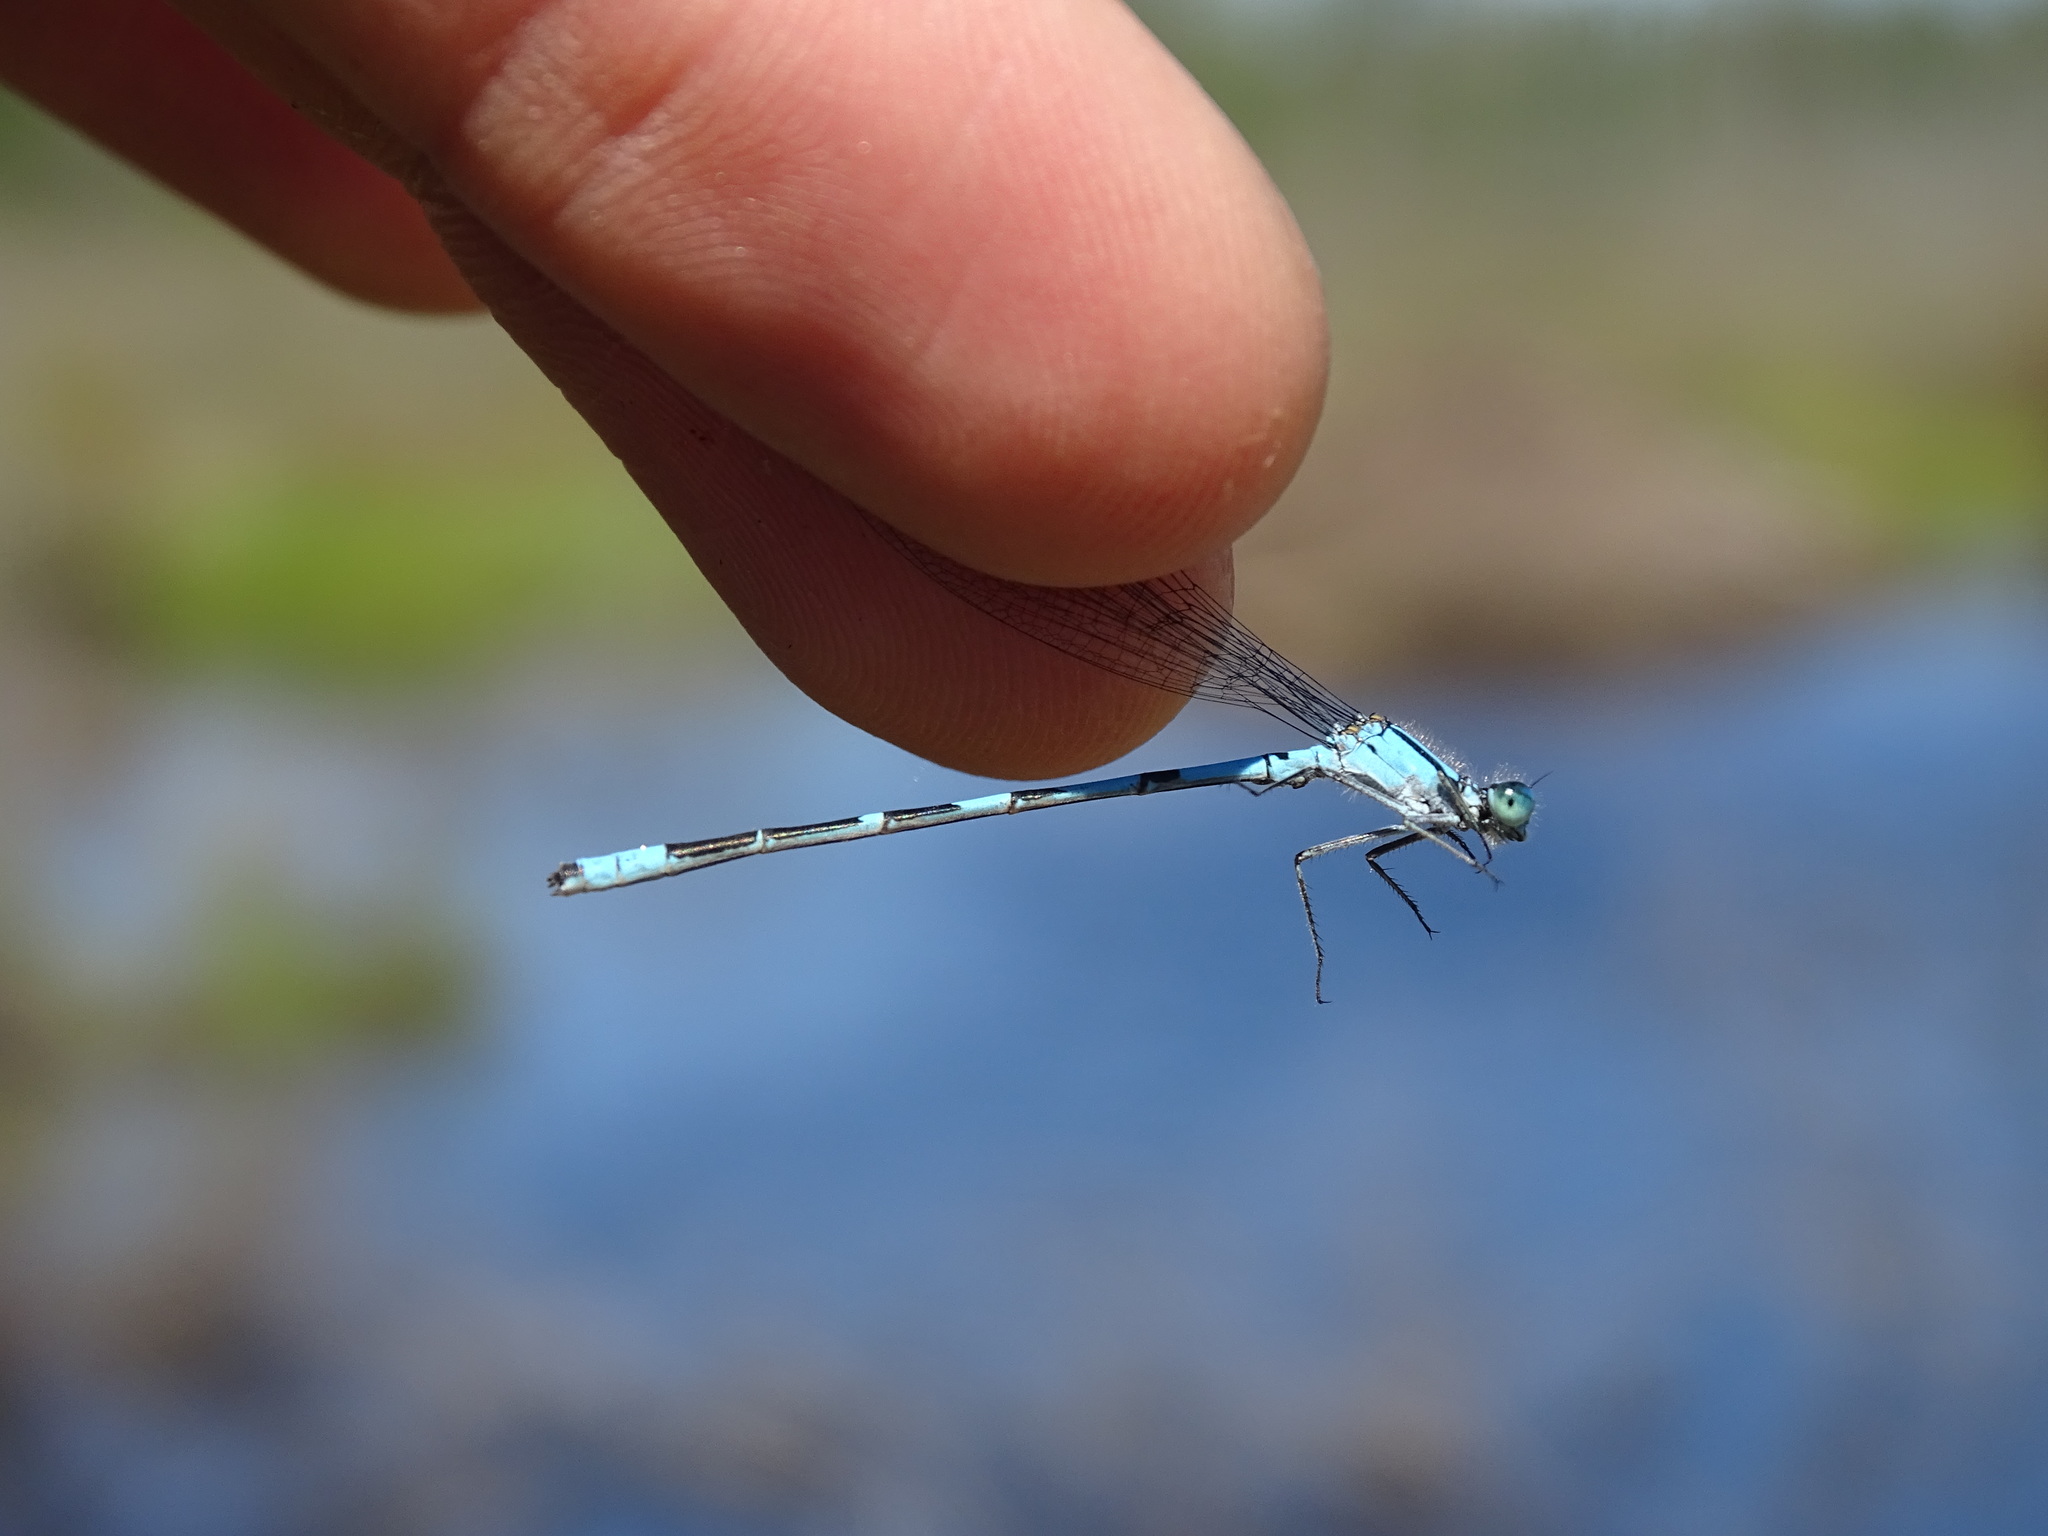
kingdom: Animalia
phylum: Arthropoda
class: Insecta
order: Odonata
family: Coenagrionidae
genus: Enallagma
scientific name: Enallagma ebrium
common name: Marsh bluet
